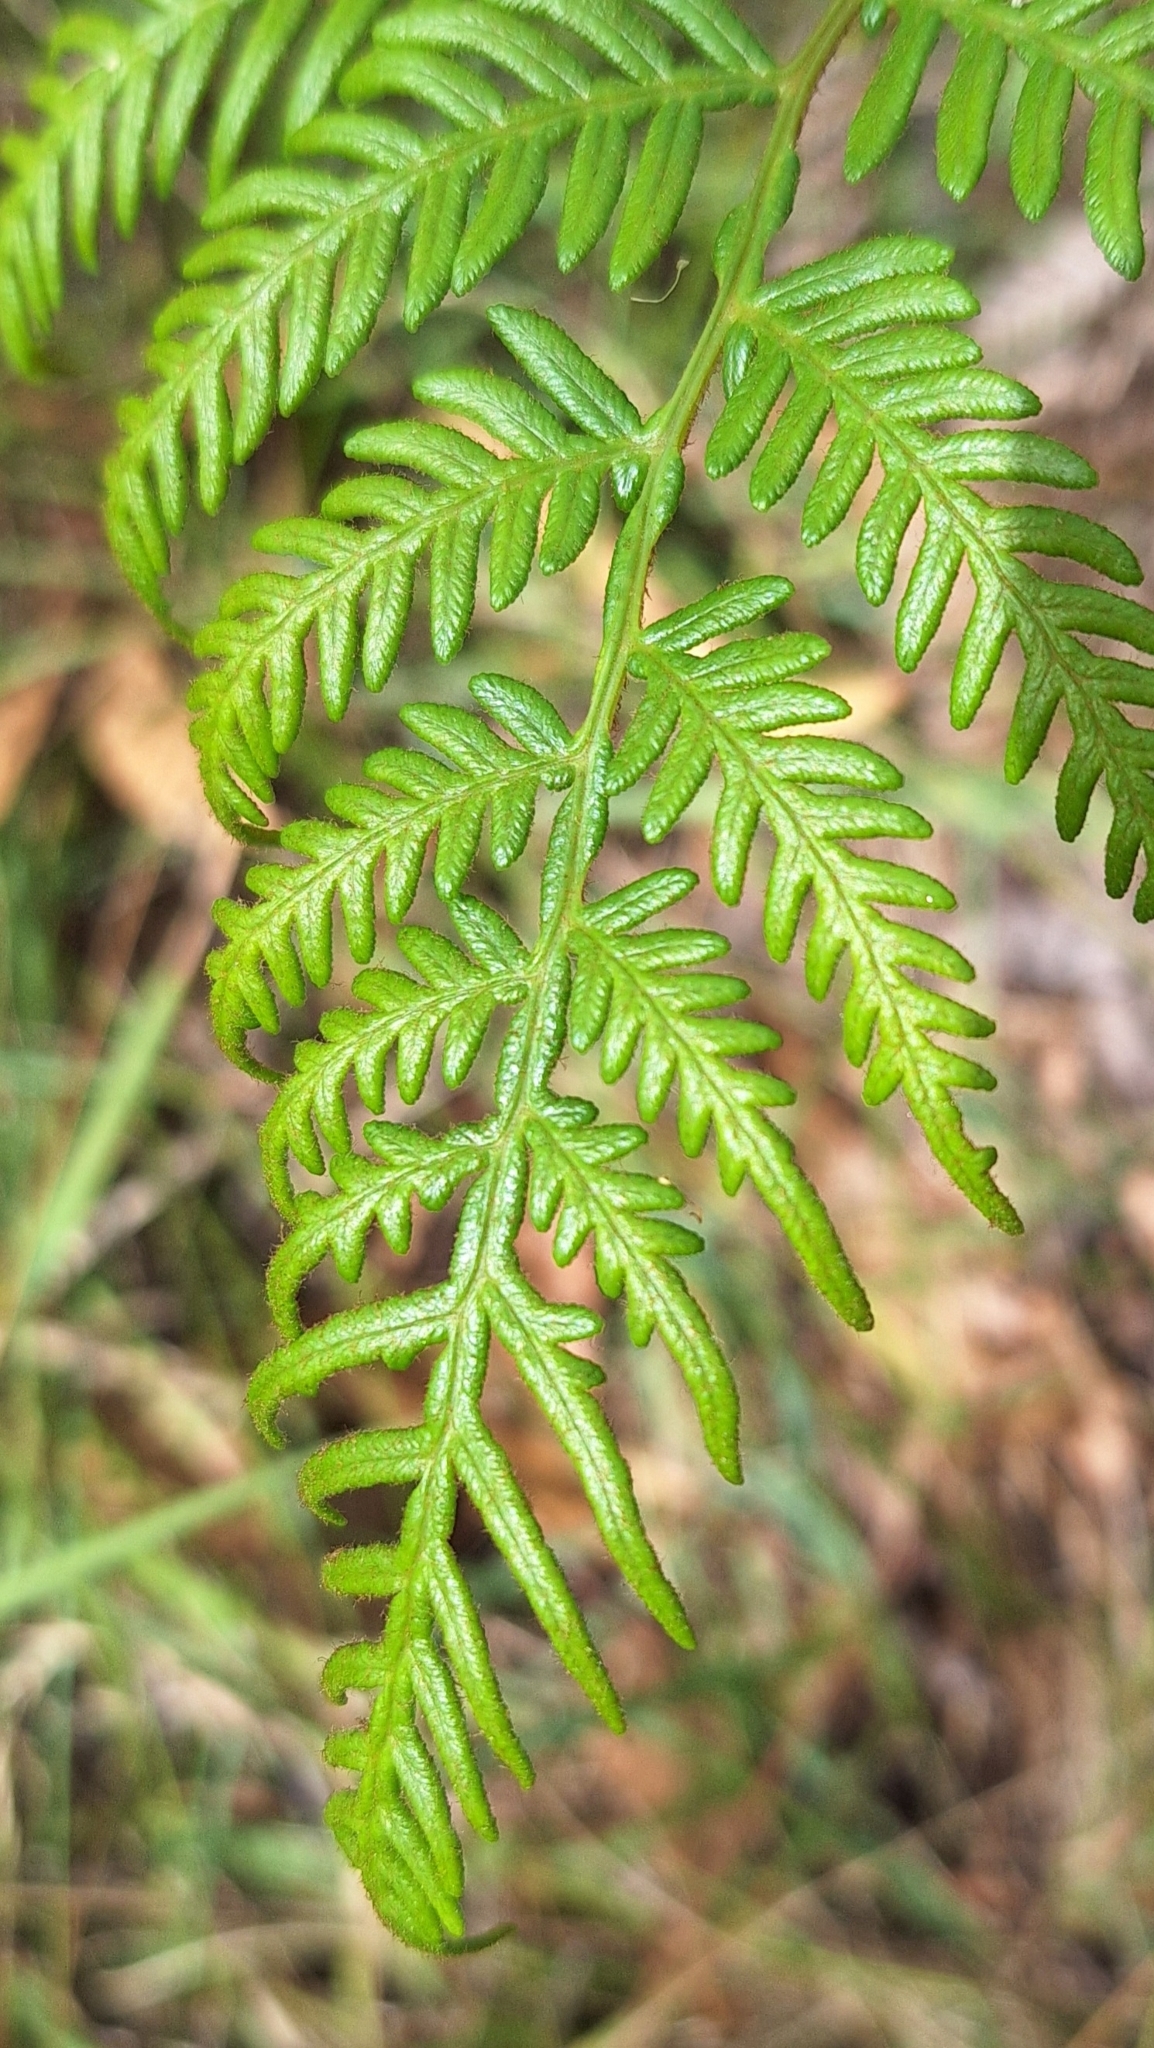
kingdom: Plantae
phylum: Tracheophyta
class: Polypodiopsida
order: Polypodiales
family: Dennstaedtiaceae
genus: Pteridium
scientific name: Pteridium esculentum
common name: Bracken fern
